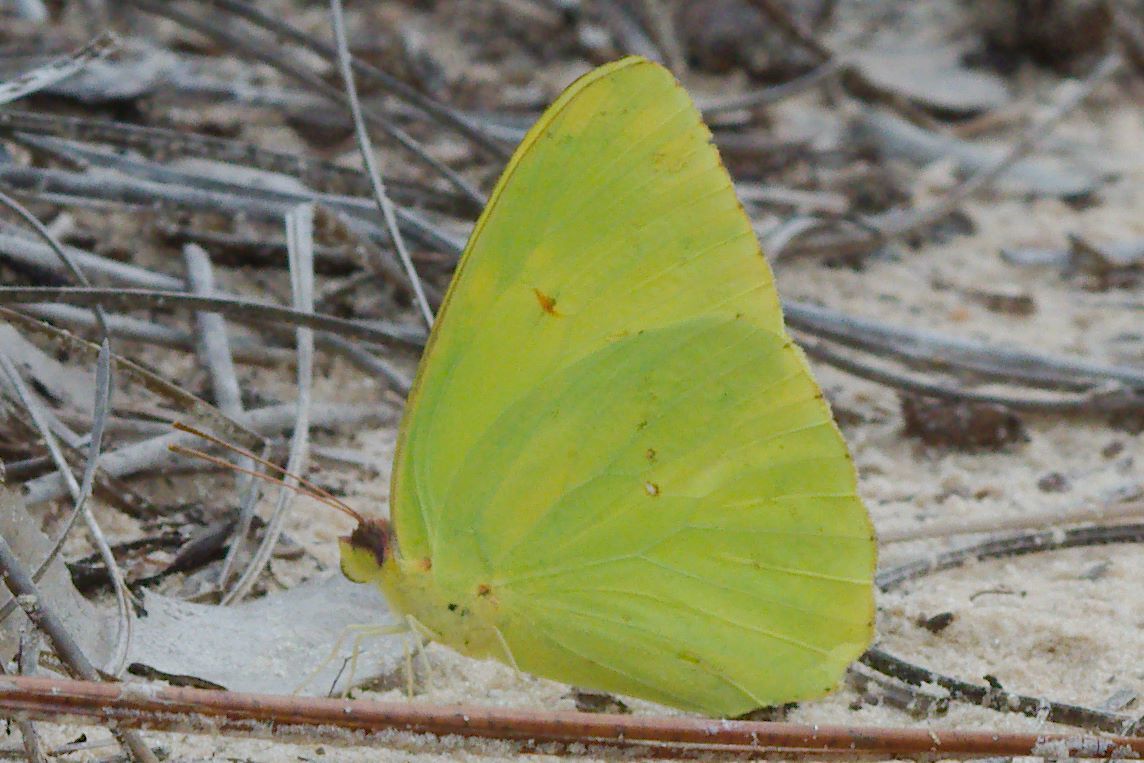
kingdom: Animalia
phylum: Arthropoda
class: Insecta
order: Lepidoptera
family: Pieridae
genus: Phoebis
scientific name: Phoebis sennae
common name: Cloudless sulphur
